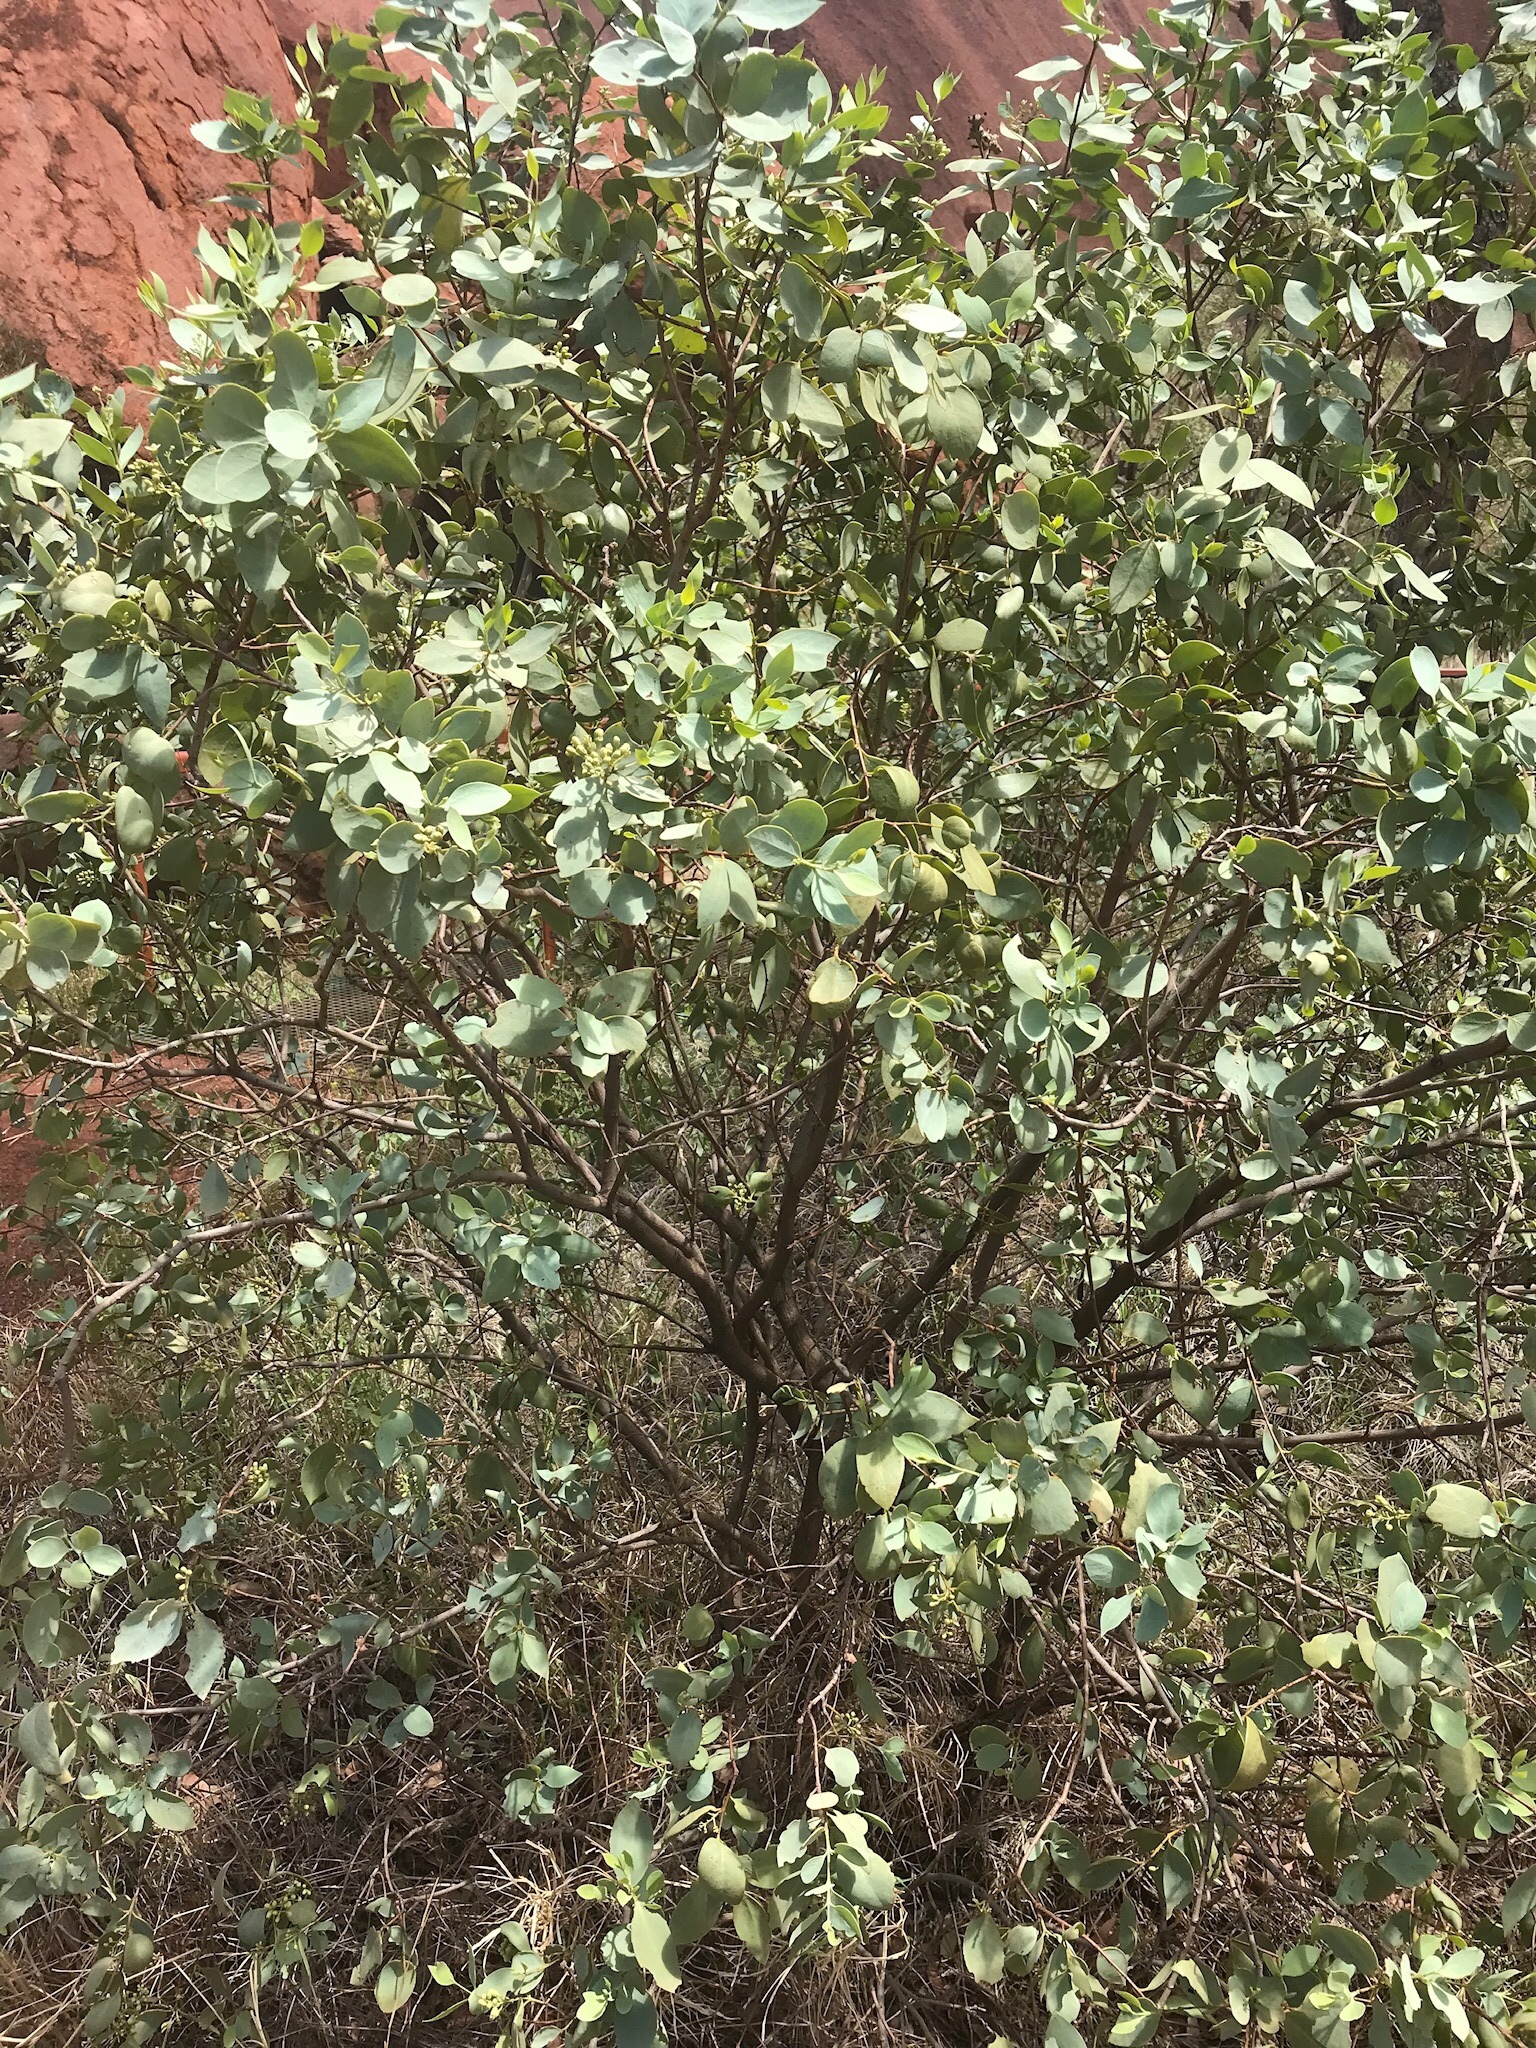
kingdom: Plantae
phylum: Tracheophyta
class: Magnoliopsida
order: Santalales
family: Santalaceae
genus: Santalum
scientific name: Santalum lanceolatum
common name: Ankwerley
